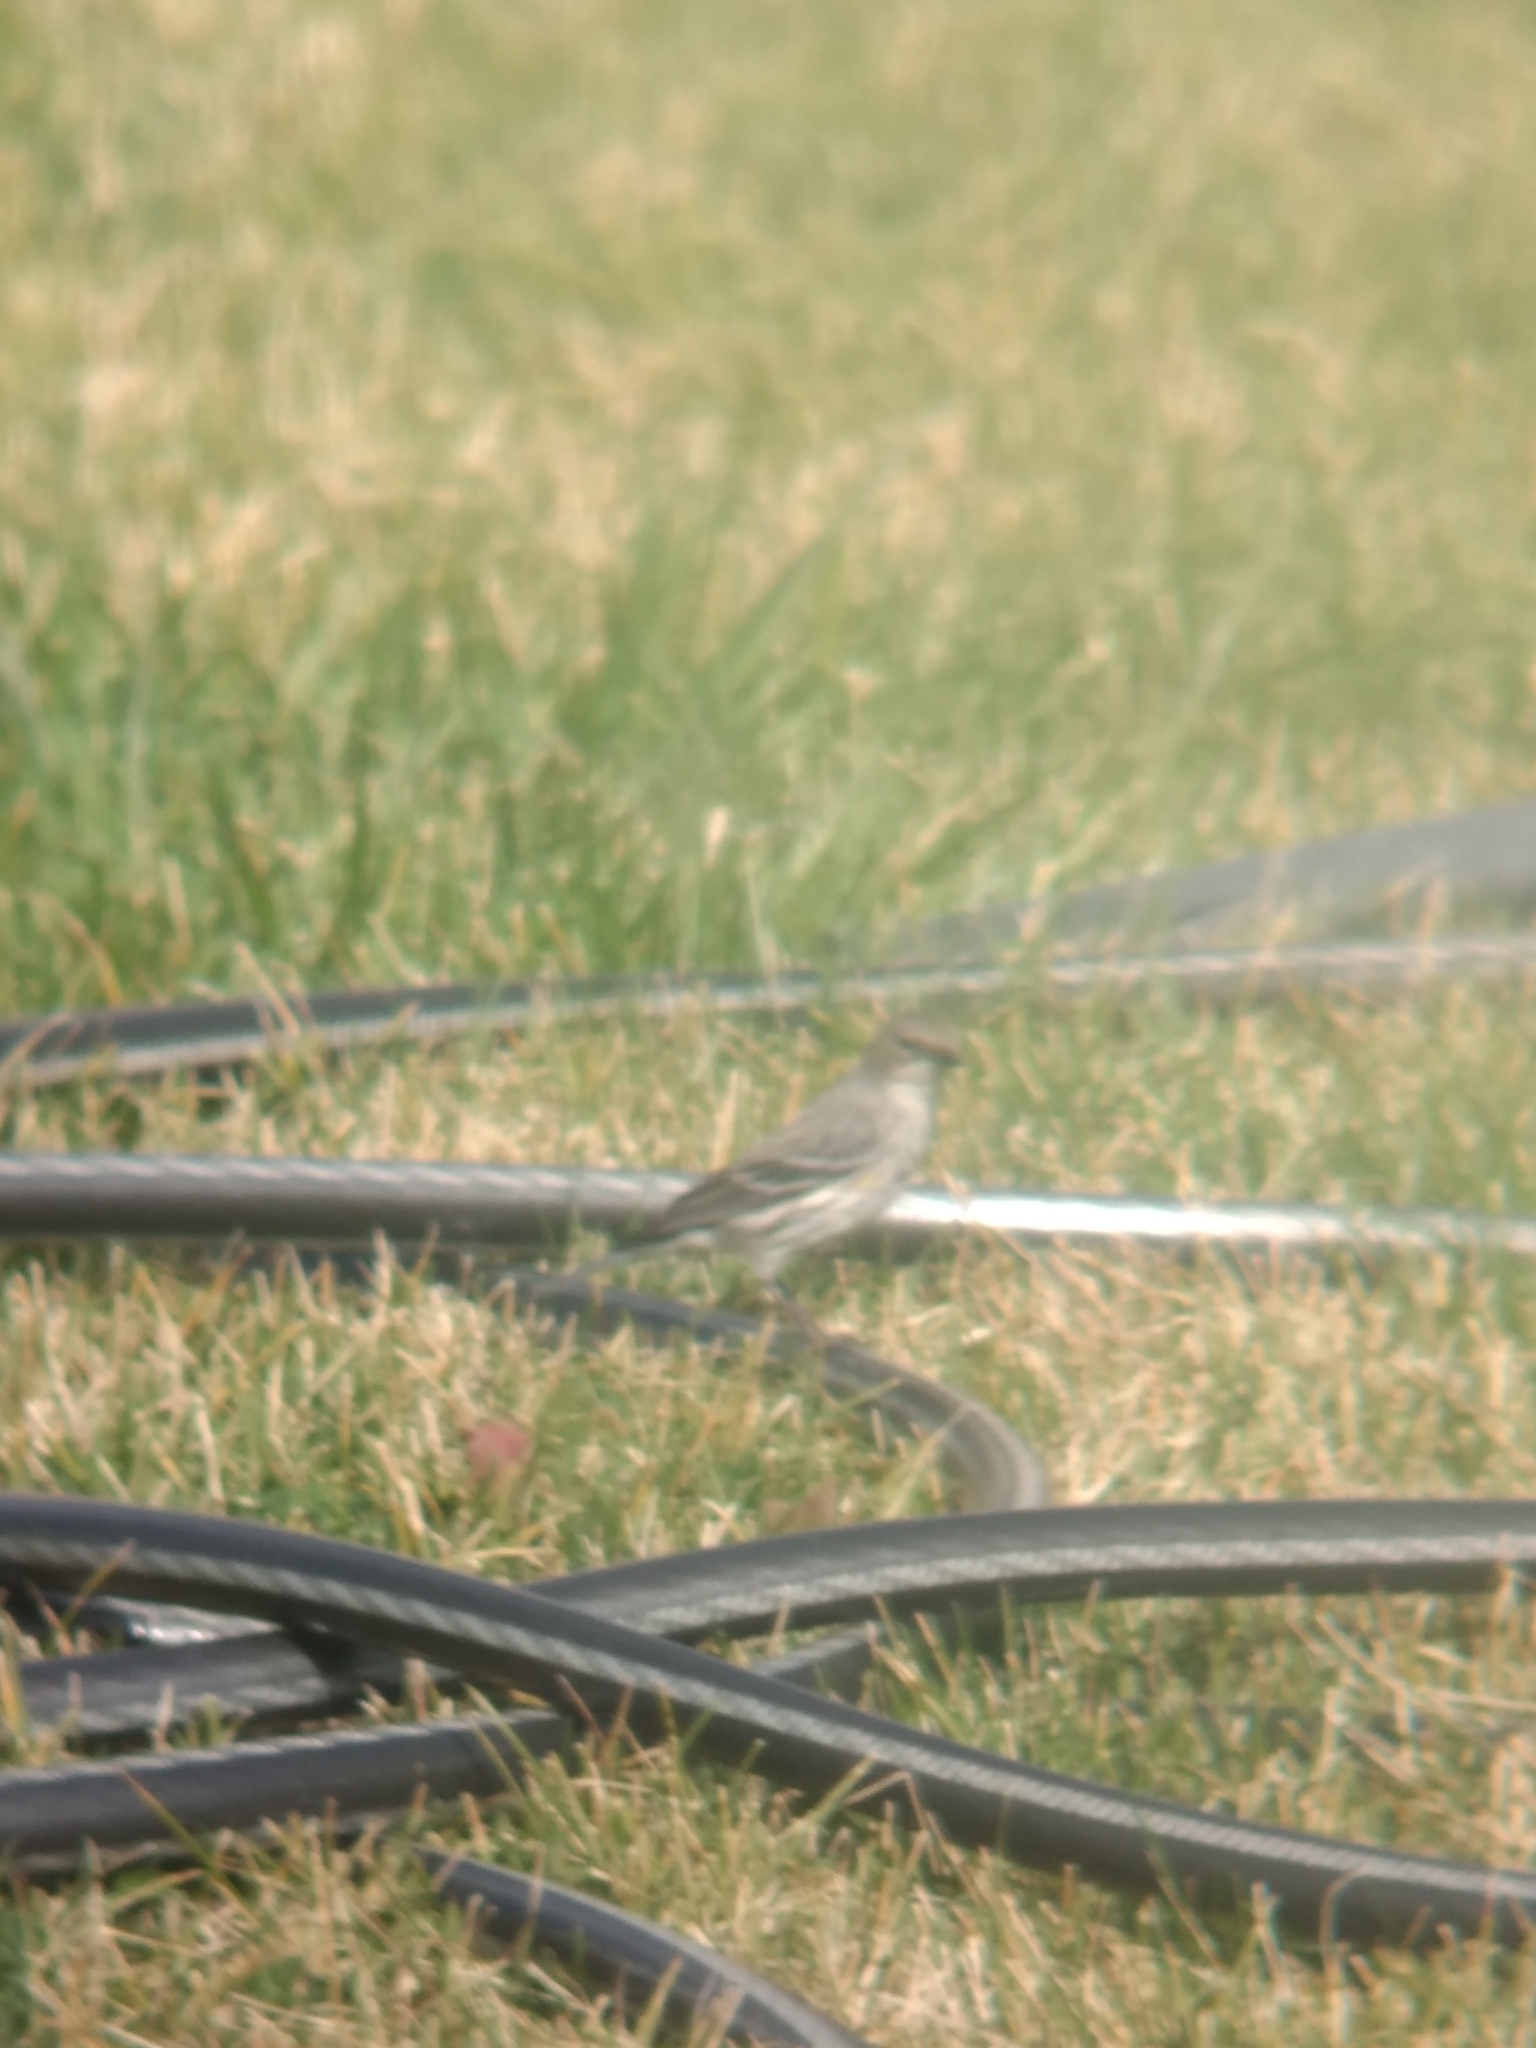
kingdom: Animalia
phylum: Chordata
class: Aves
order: Passeriformes
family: Parulidae
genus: Setophaga
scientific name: Setophaga coronata
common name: Myrtle warbler
